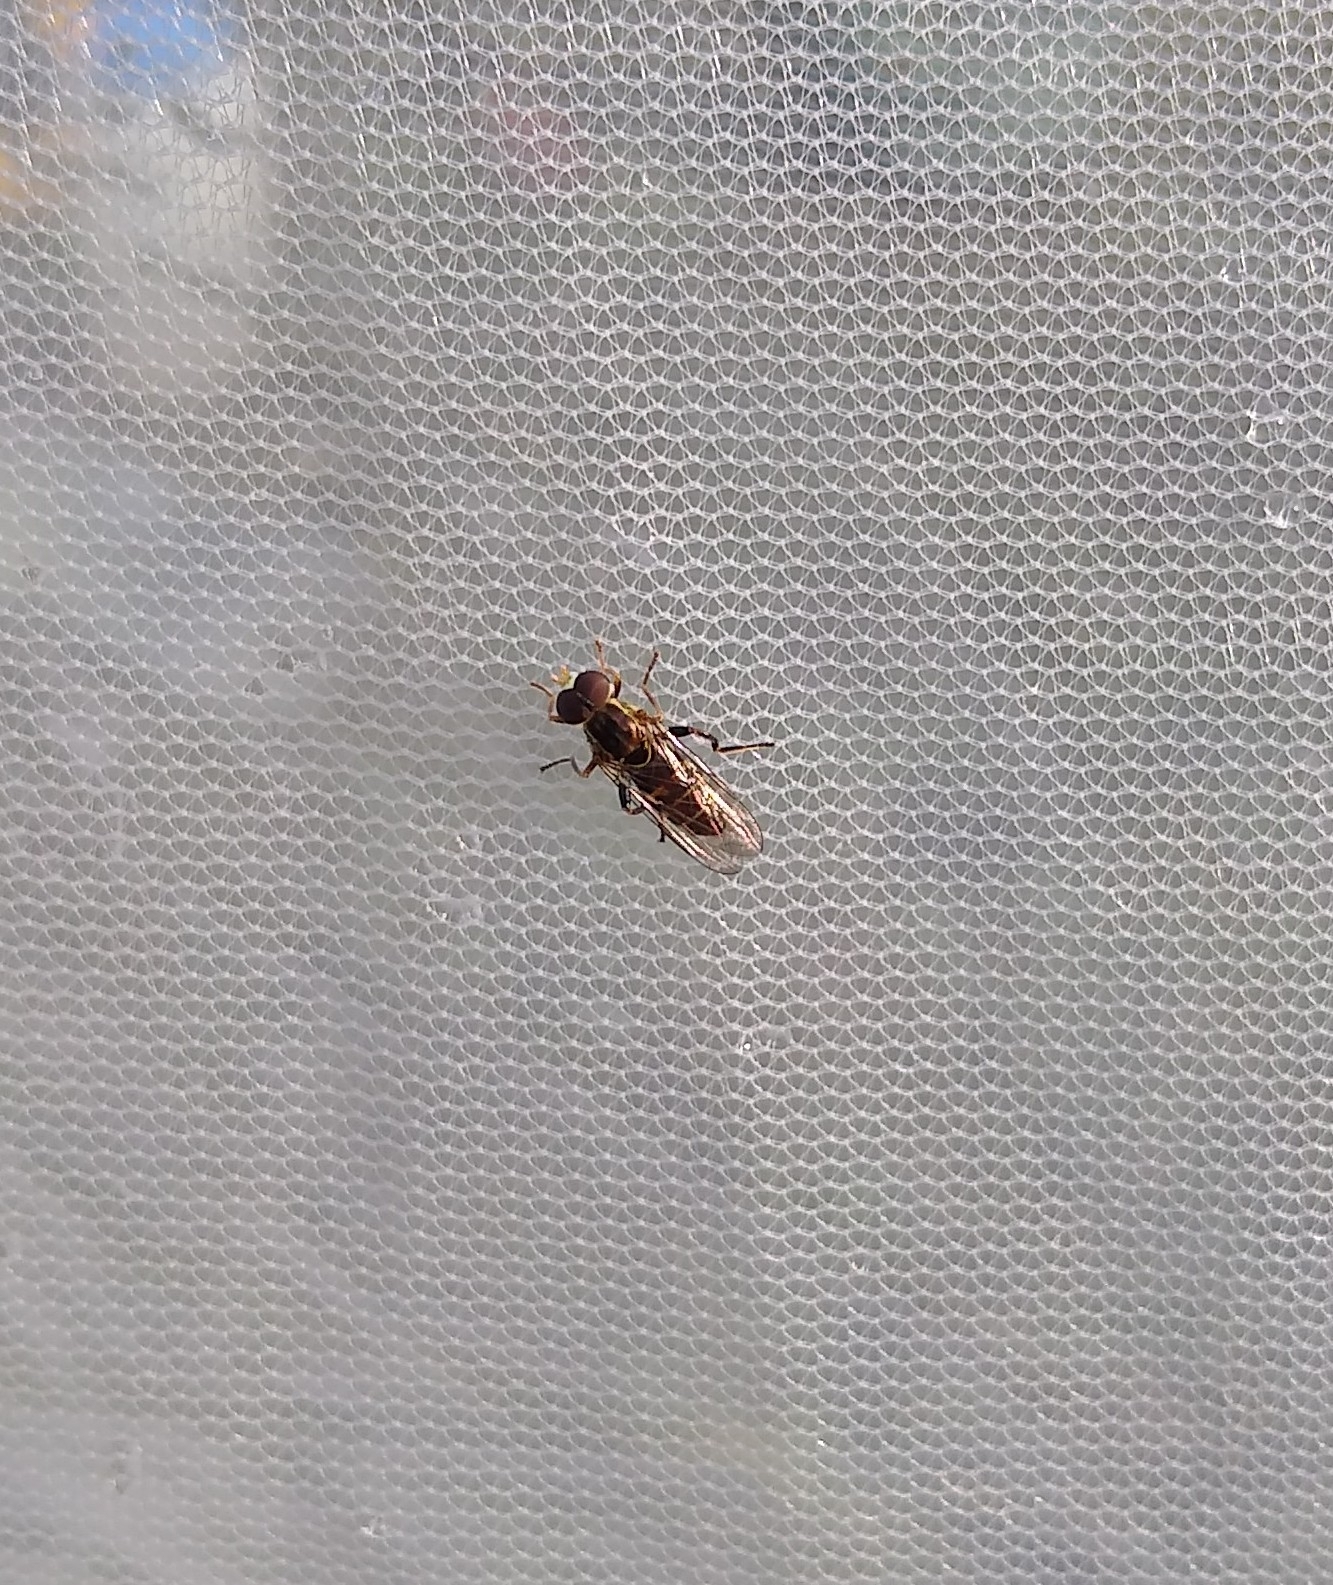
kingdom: Animalia
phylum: Arthropoda
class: Insecta
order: Diptera
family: Syrphidae
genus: Toxomerus
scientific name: Toxomerus occidentalis
